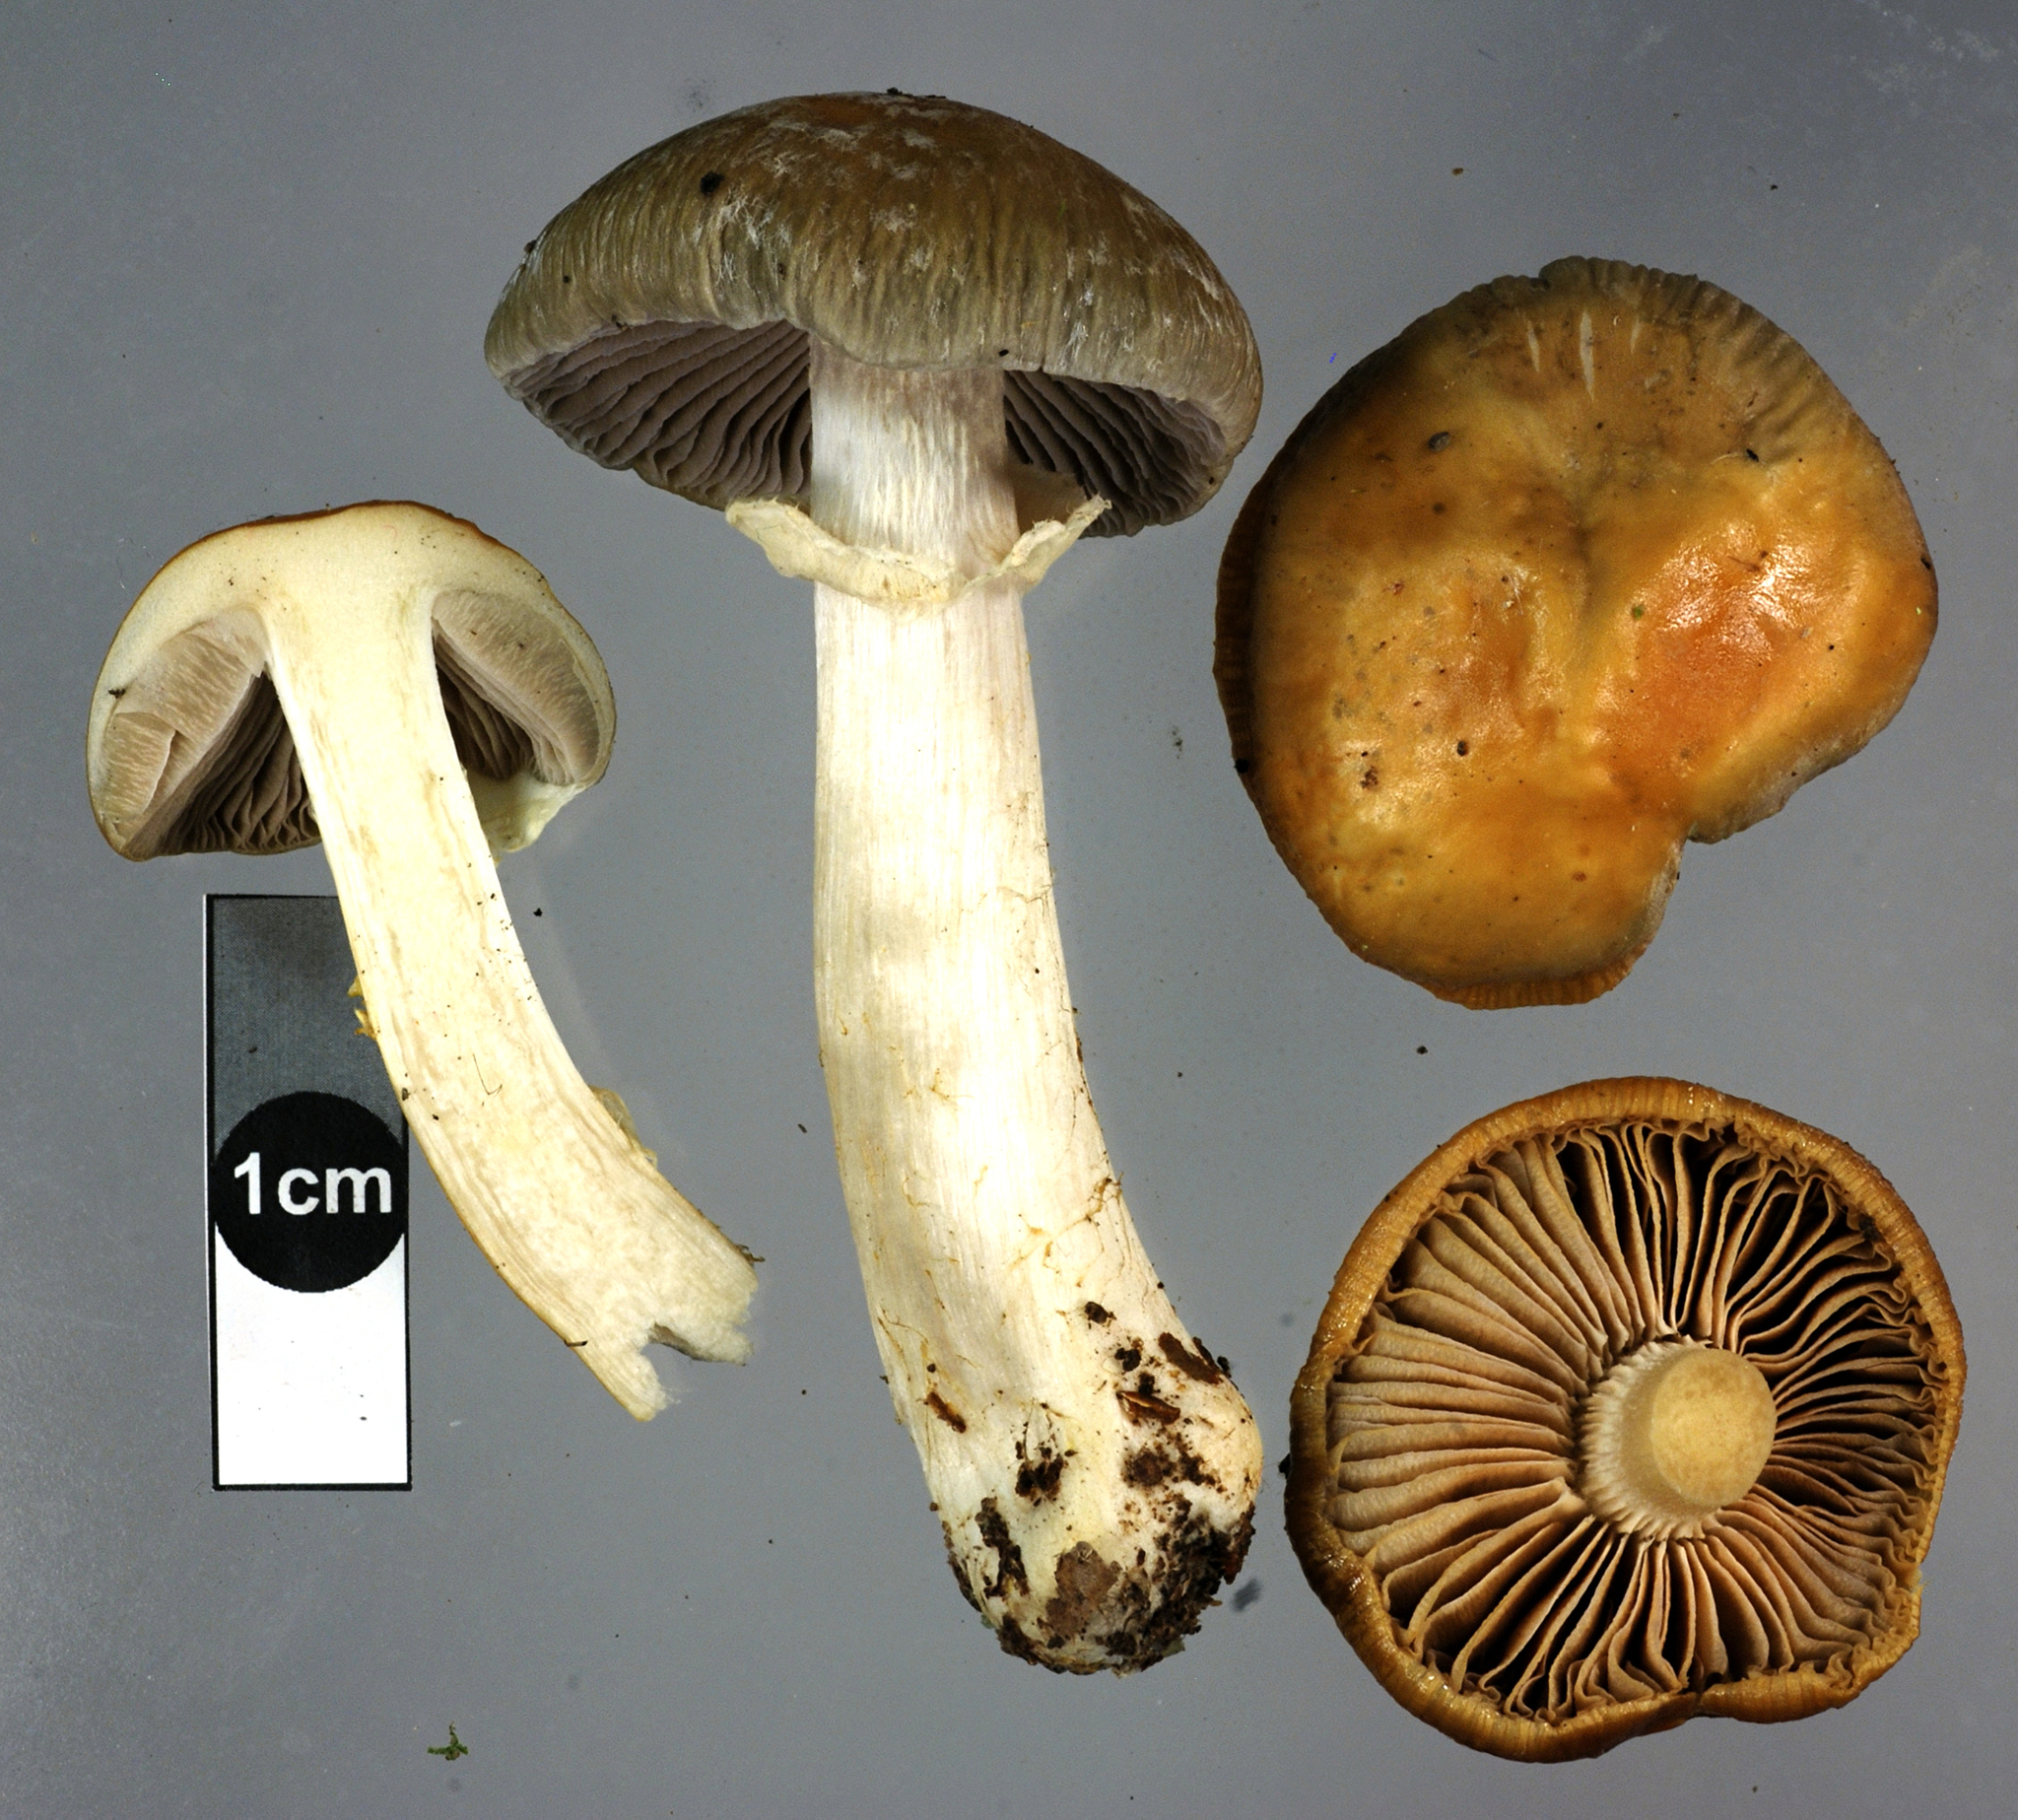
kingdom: Fungi
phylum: Basidiomycota
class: Agaricomycetes
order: Agaricales
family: Cortinariaceae
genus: Cortinarius
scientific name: Cortinarius meleagris
